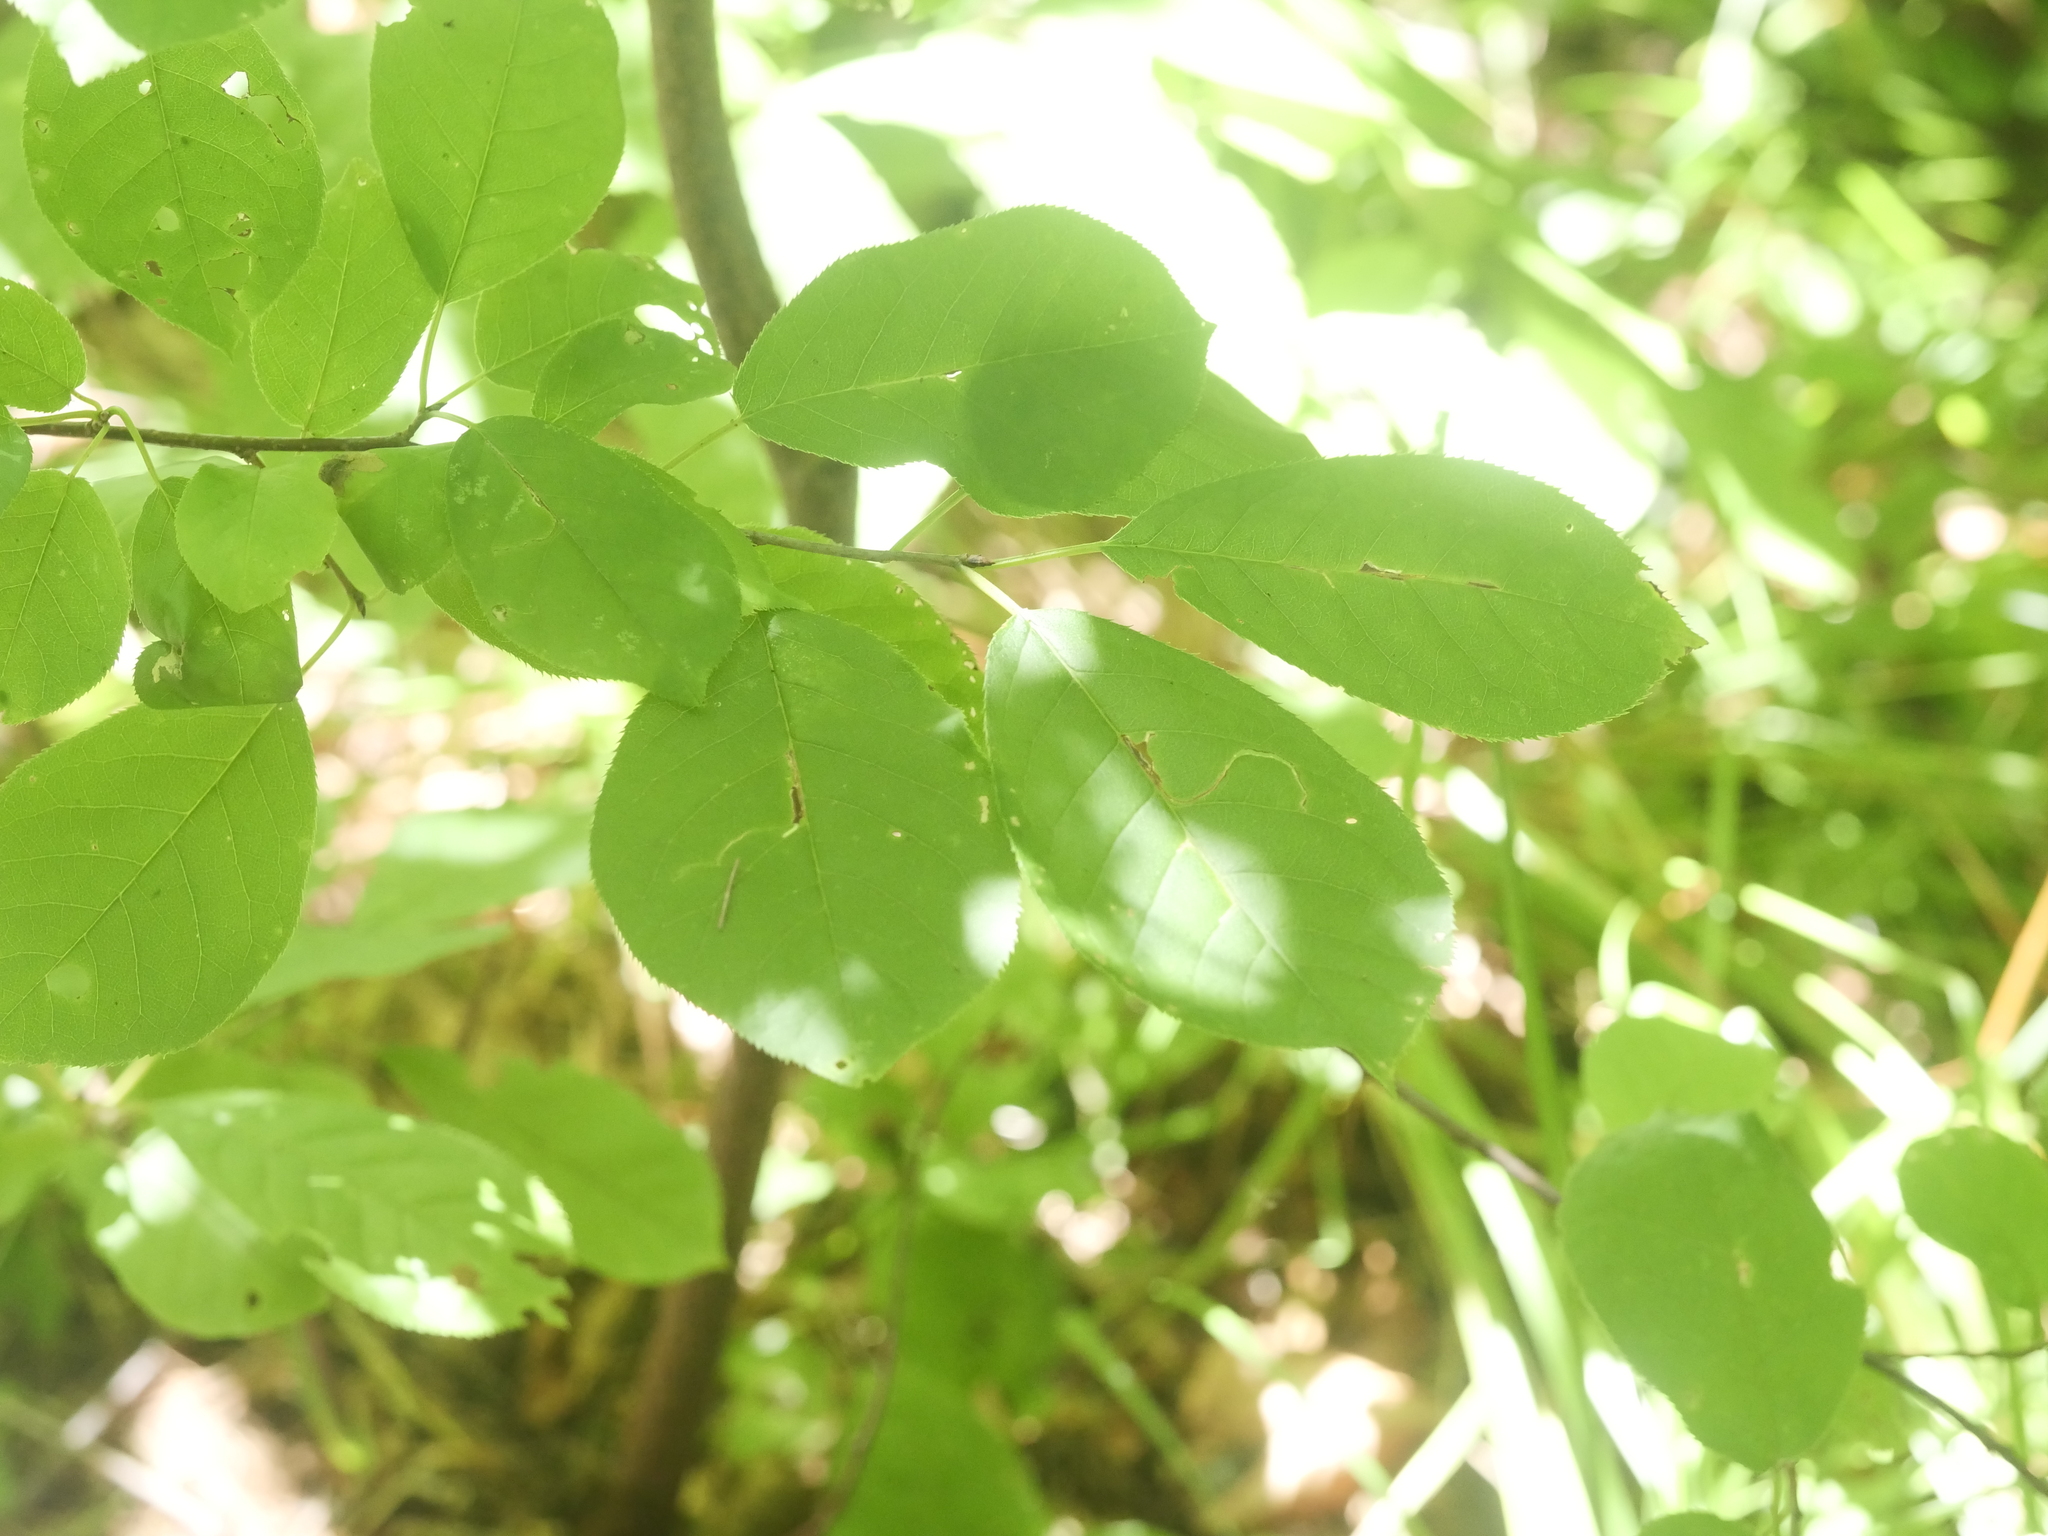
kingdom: Plantae
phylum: Tracheophyta
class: Magnoliopsida
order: Rosales
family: Rosaceae
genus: Prunus
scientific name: Prunus virginiana
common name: Chokecherry
